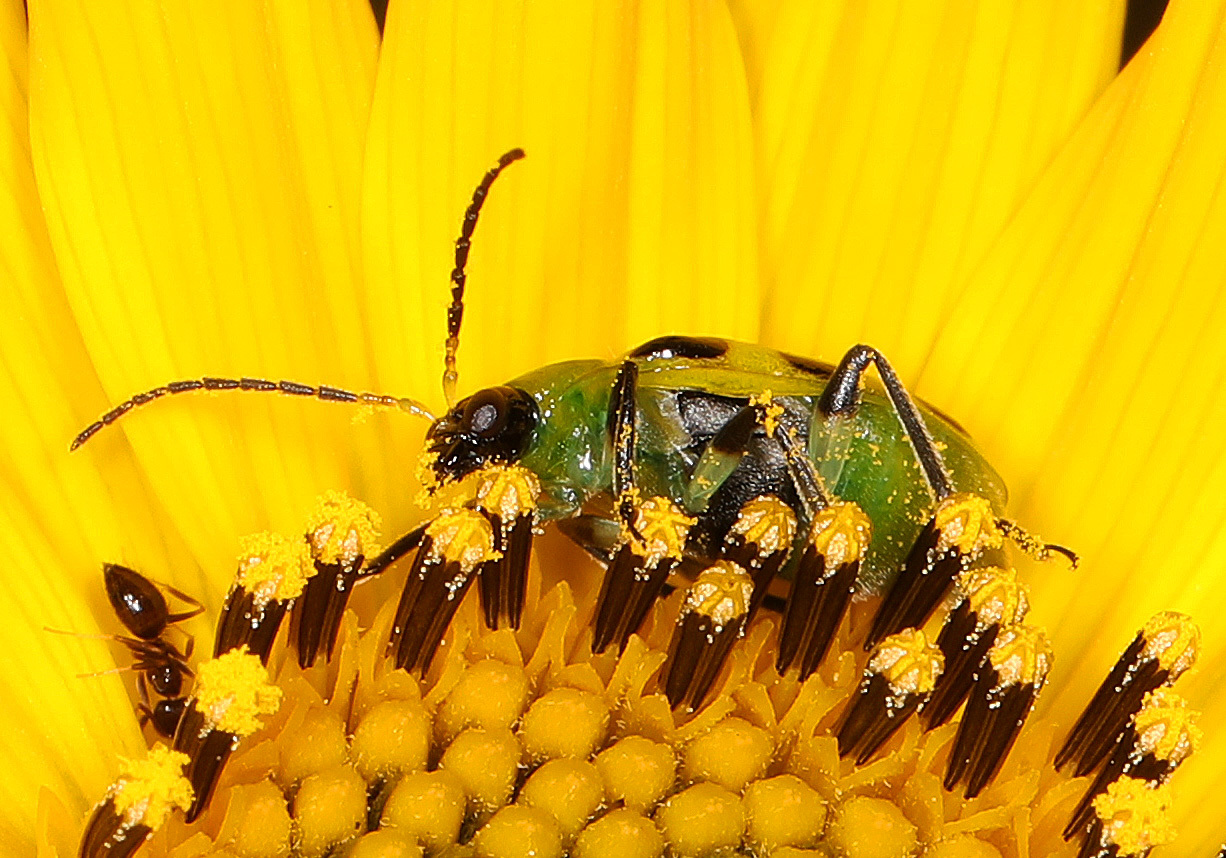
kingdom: Animalia
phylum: Arthropoda
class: Insecta
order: Coleoptera
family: Chrysomelidae
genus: Diabrotica
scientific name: Diabrotica undecimpunctata
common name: Spotted cucumber beetle
